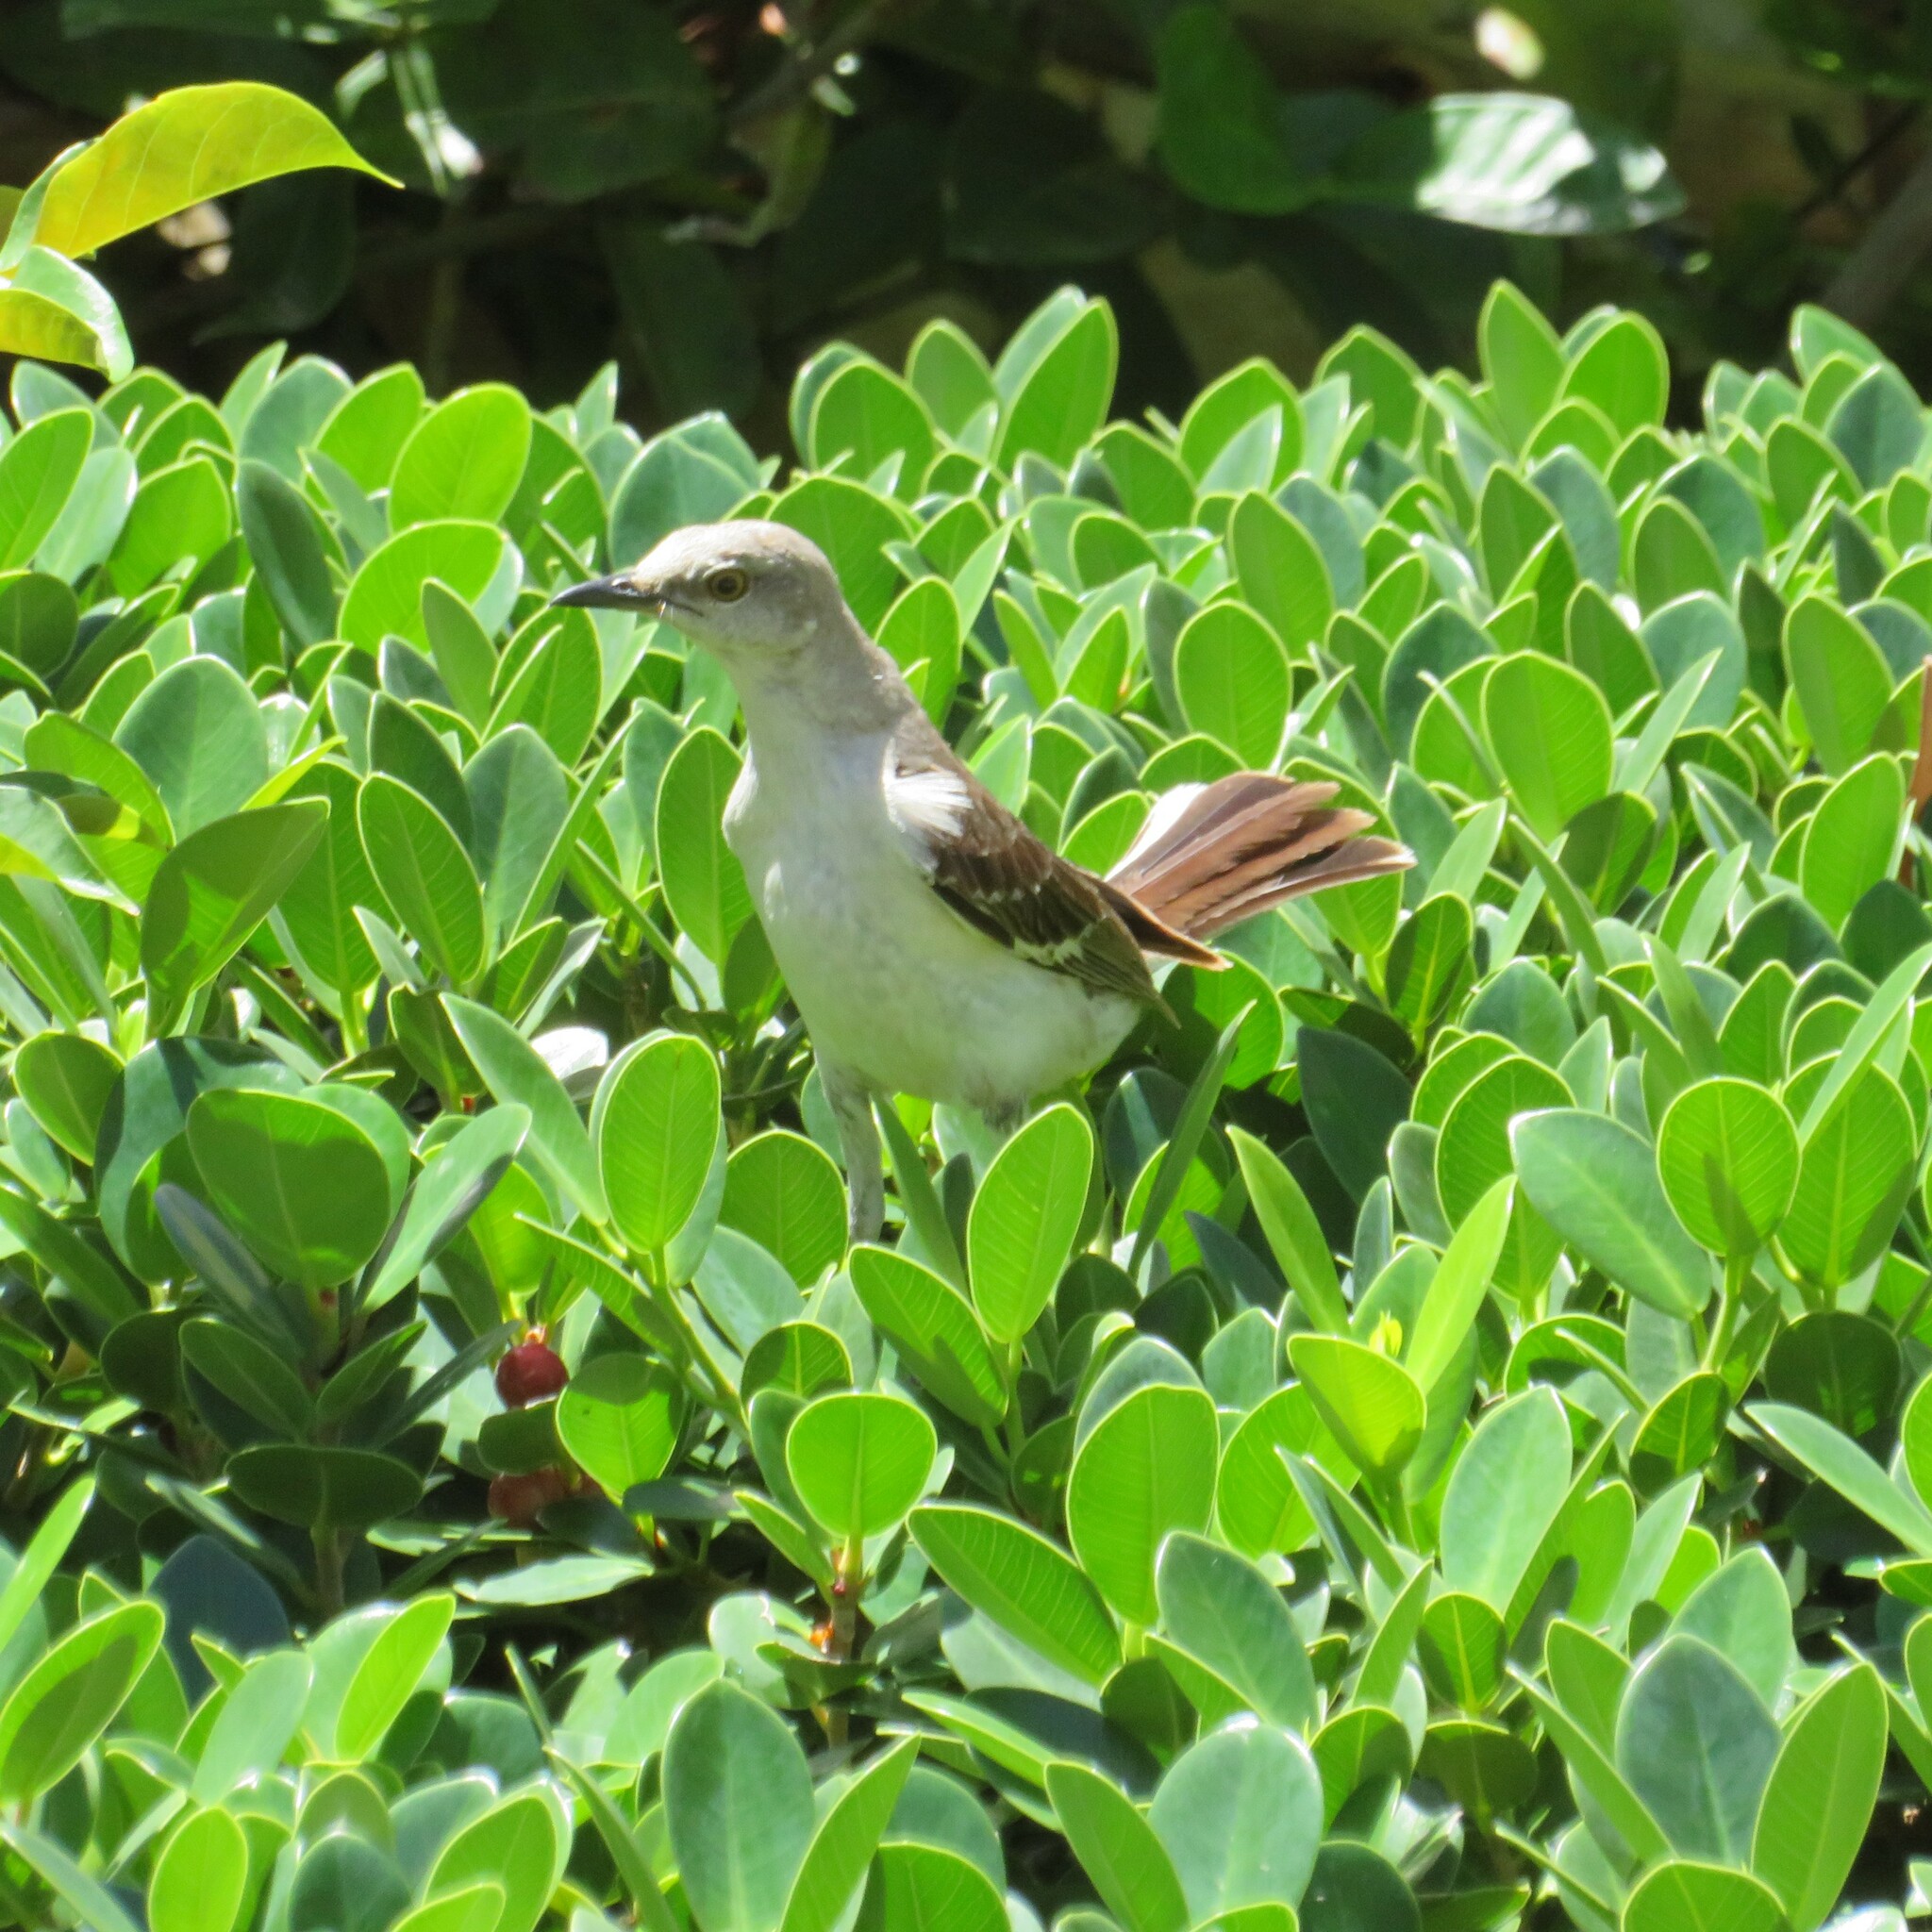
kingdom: Animalia
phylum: Chordata
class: Aves
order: Passeriformes
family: Mimidae
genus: Mimus
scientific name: Mimus polyglottos
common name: Northern mockingbird
